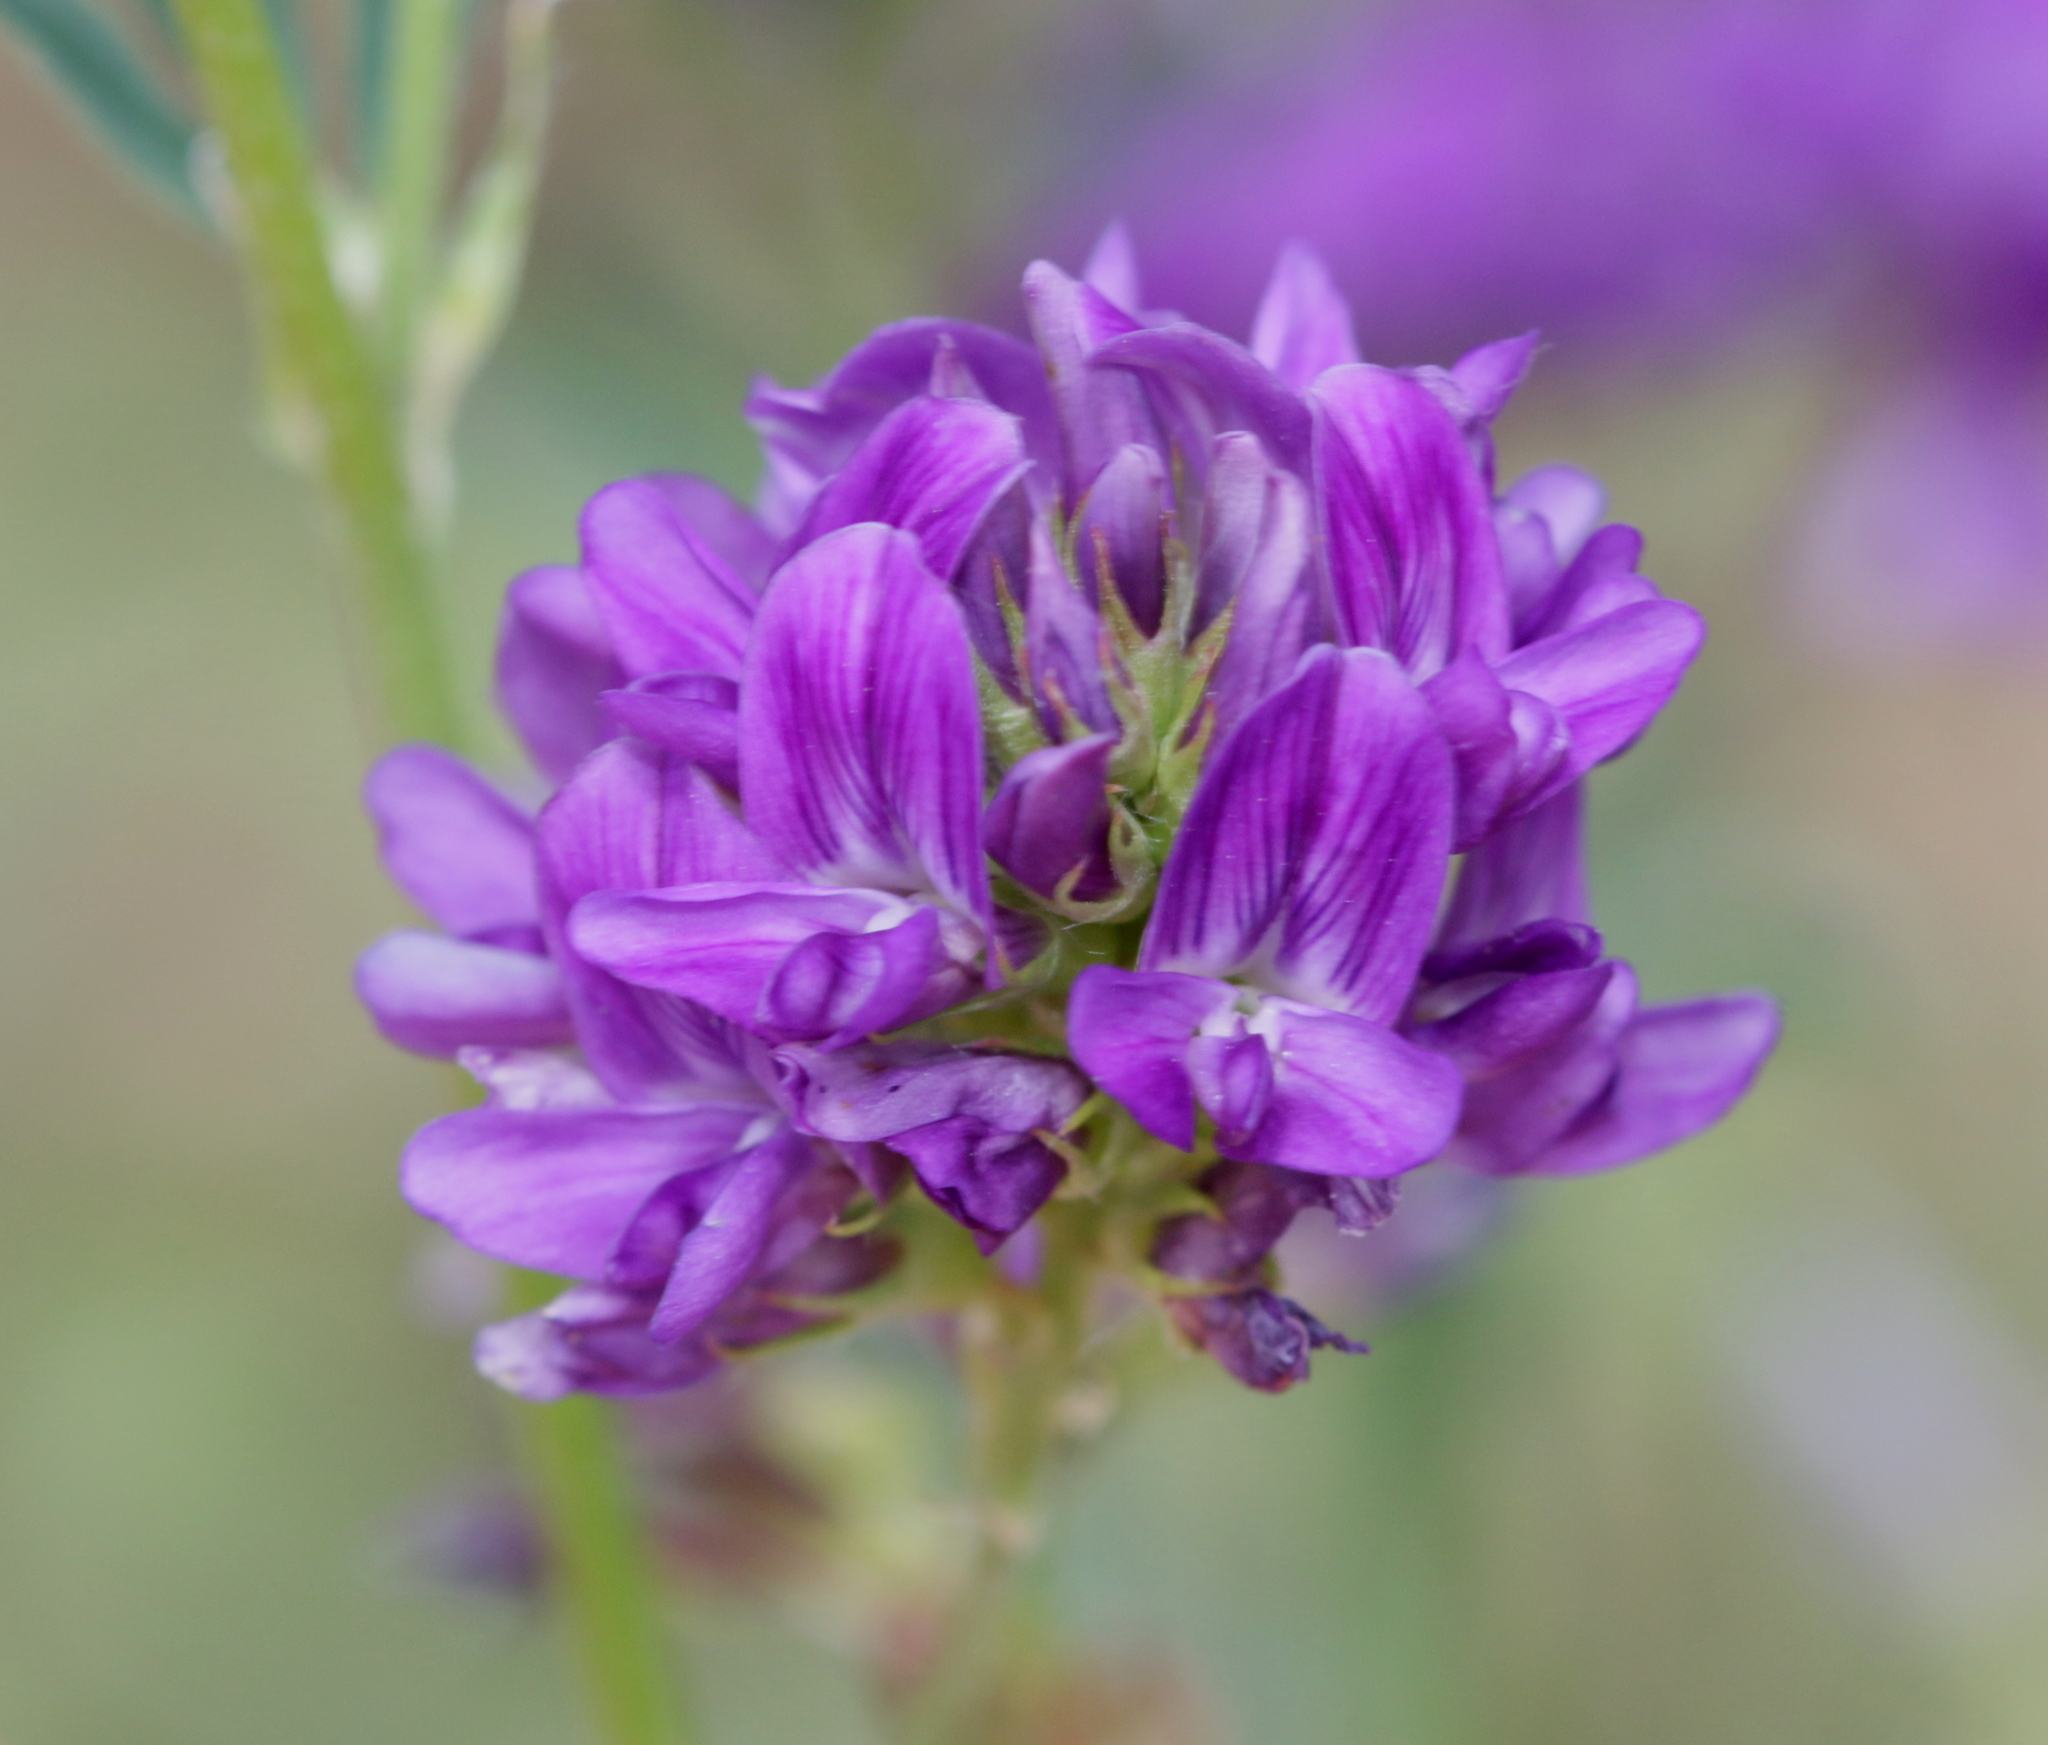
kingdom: Plantae
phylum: Tracheophyta
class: Magnoliopsida
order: Fabales
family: Fabaceae
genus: Medicago
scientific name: Medicago sativa
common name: Alfalfa
